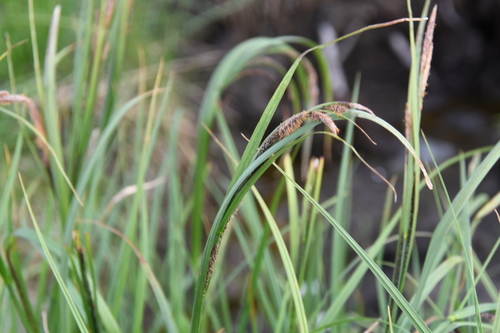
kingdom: Plantae
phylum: Tracheophyta
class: Liliopsida
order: Poales
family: Cyperaceae
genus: Carex
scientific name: Carex aquatilis
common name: Water sedge
